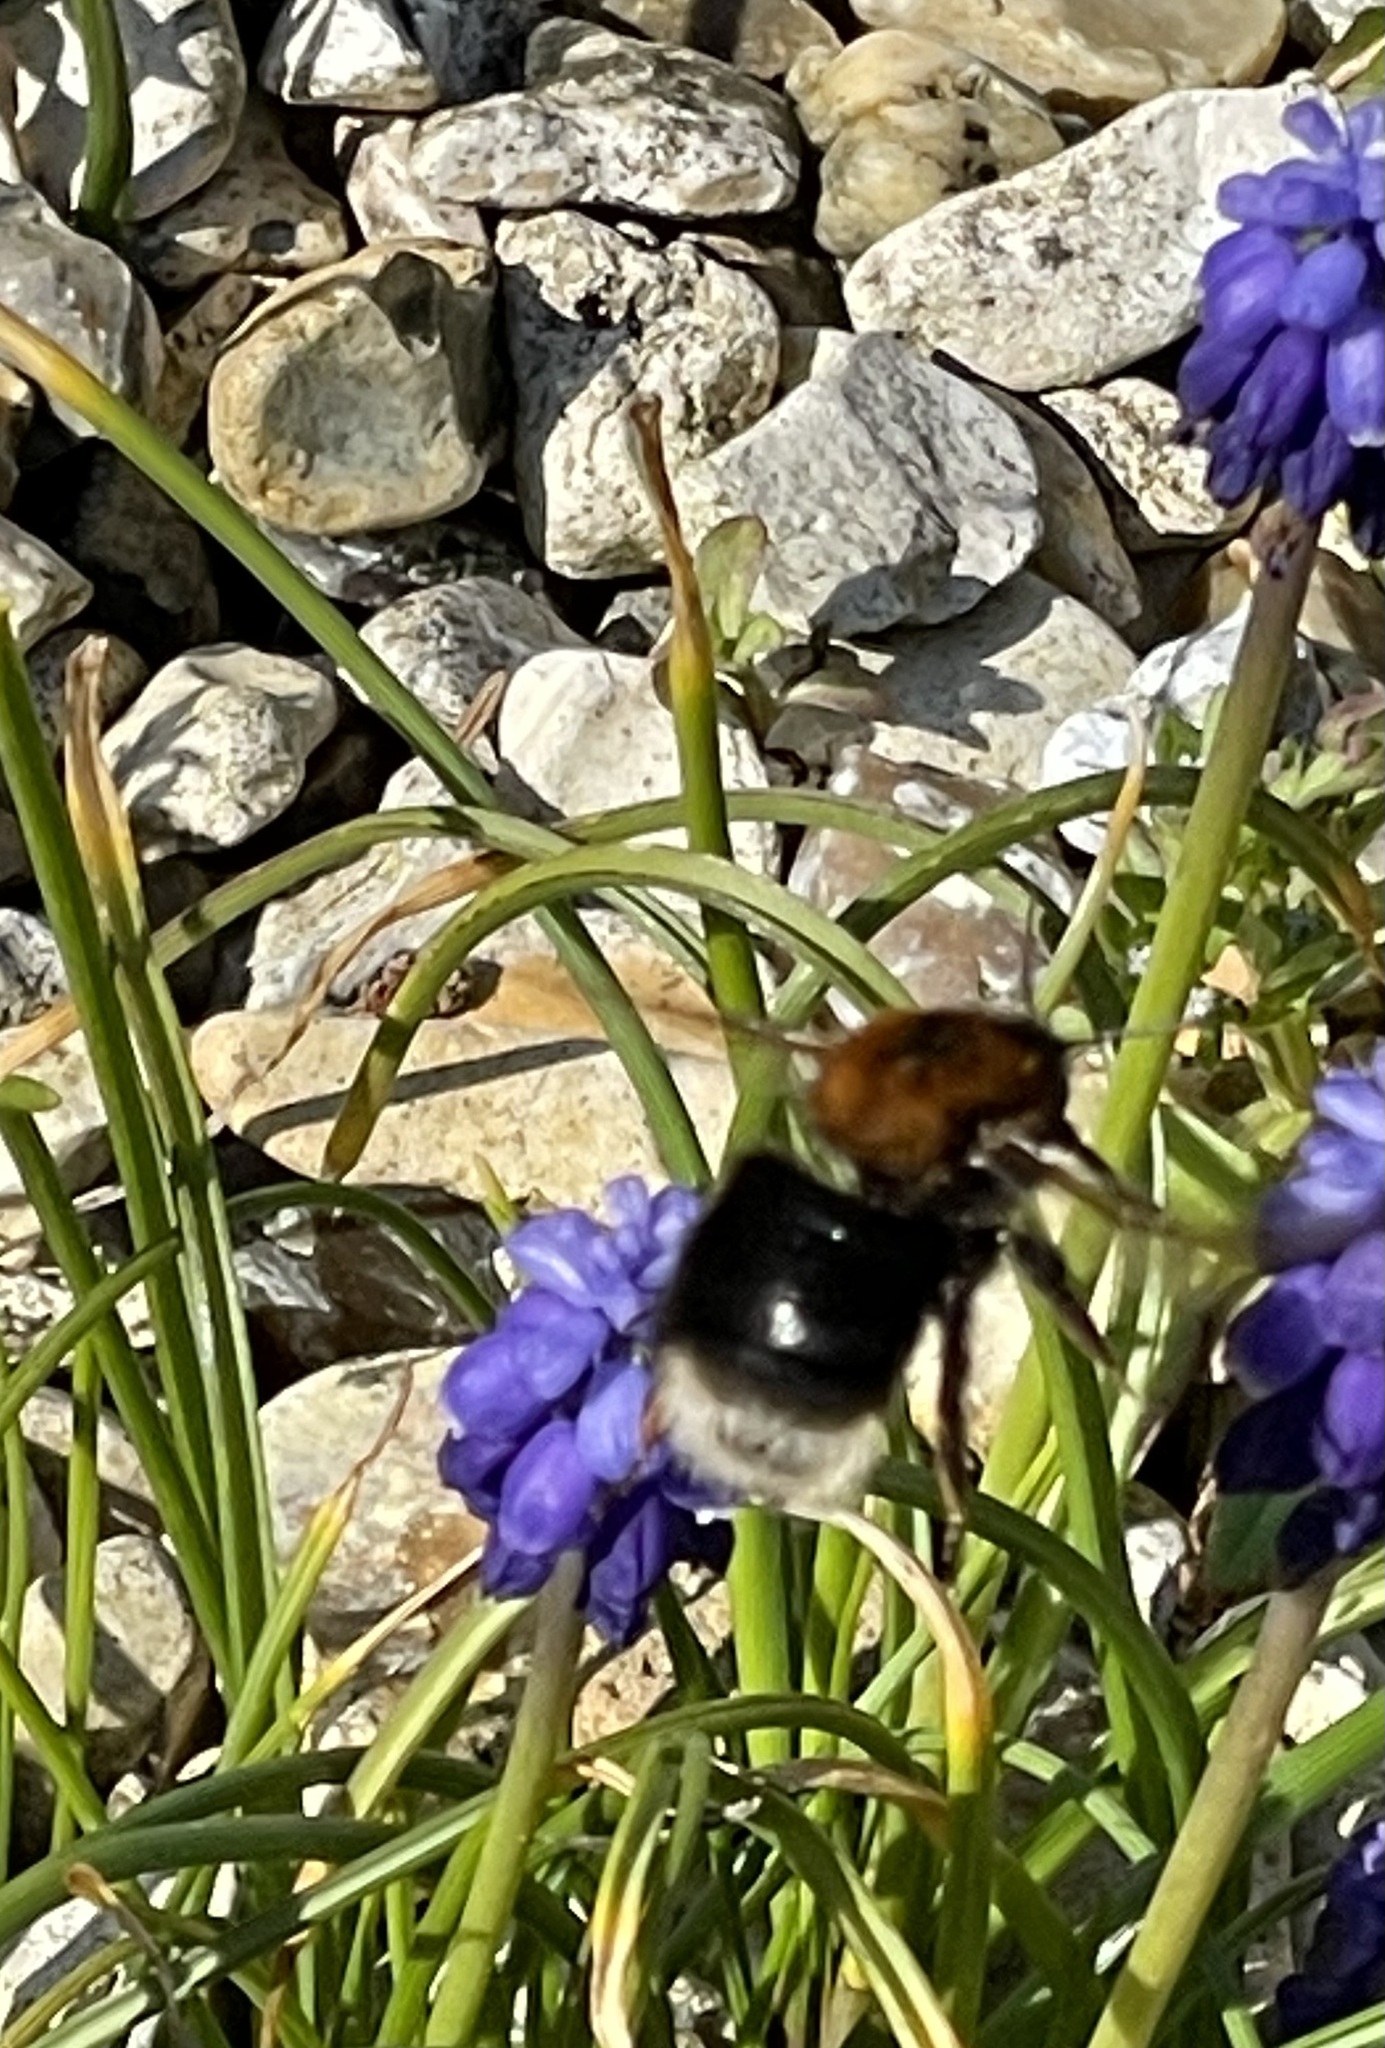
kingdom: Animalia
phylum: Arthropoda
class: Insecta
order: Hymenoptera
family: Apidae
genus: Bombus
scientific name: Bombus hypnorum
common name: New garden bumblebee
